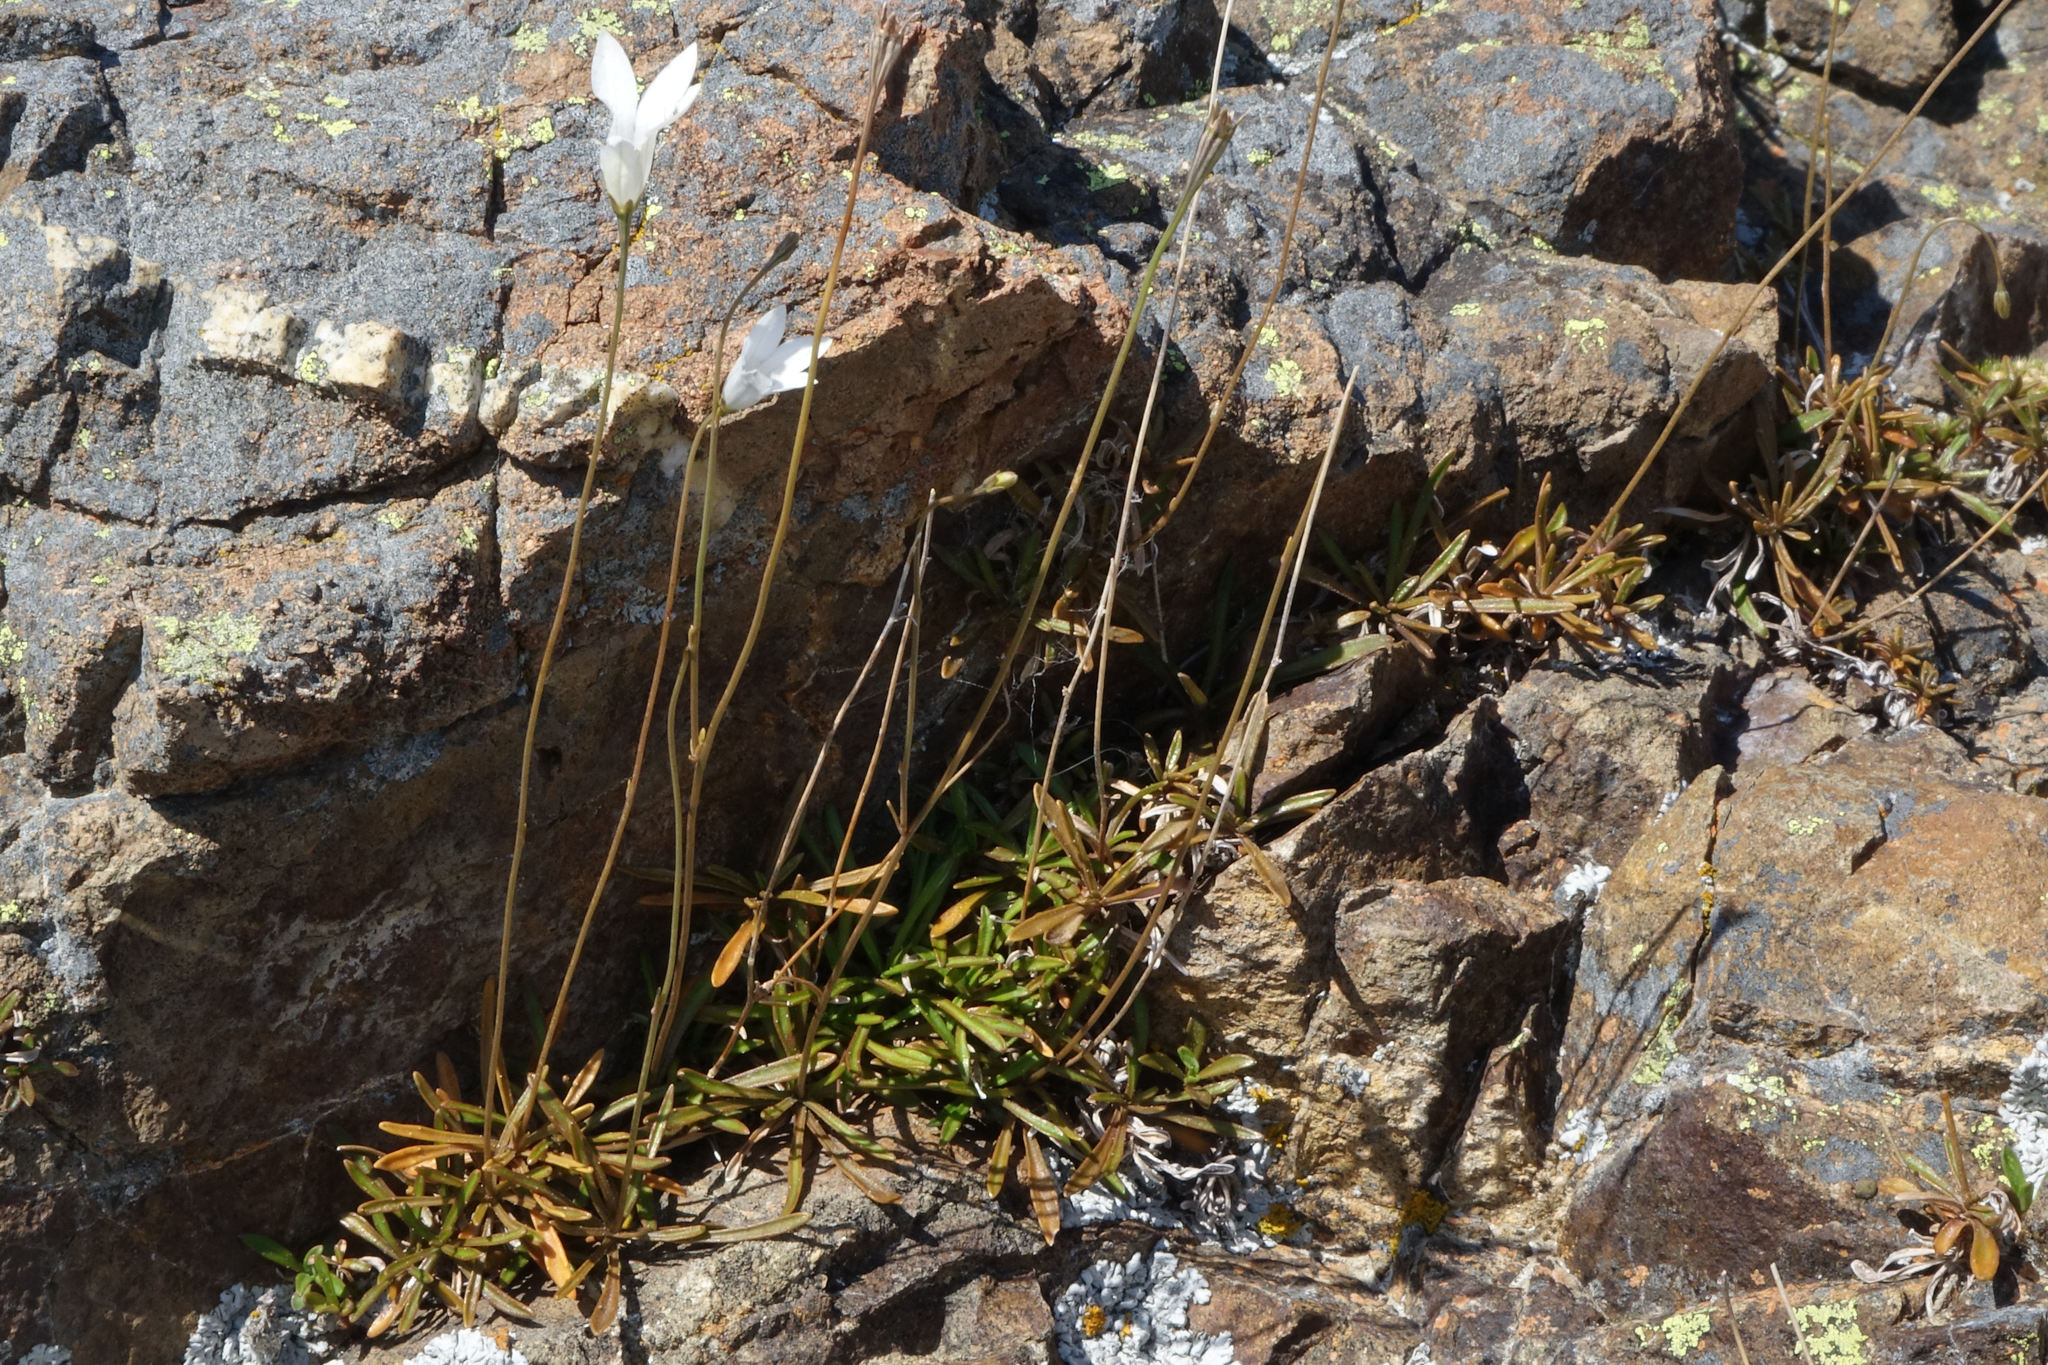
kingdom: Plantae
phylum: Tracheophyta
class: Magnoliopsida
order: Asterales
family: Campanulaceae
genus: Wahlenbergia
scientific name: Wahlenbergia albomarginata
